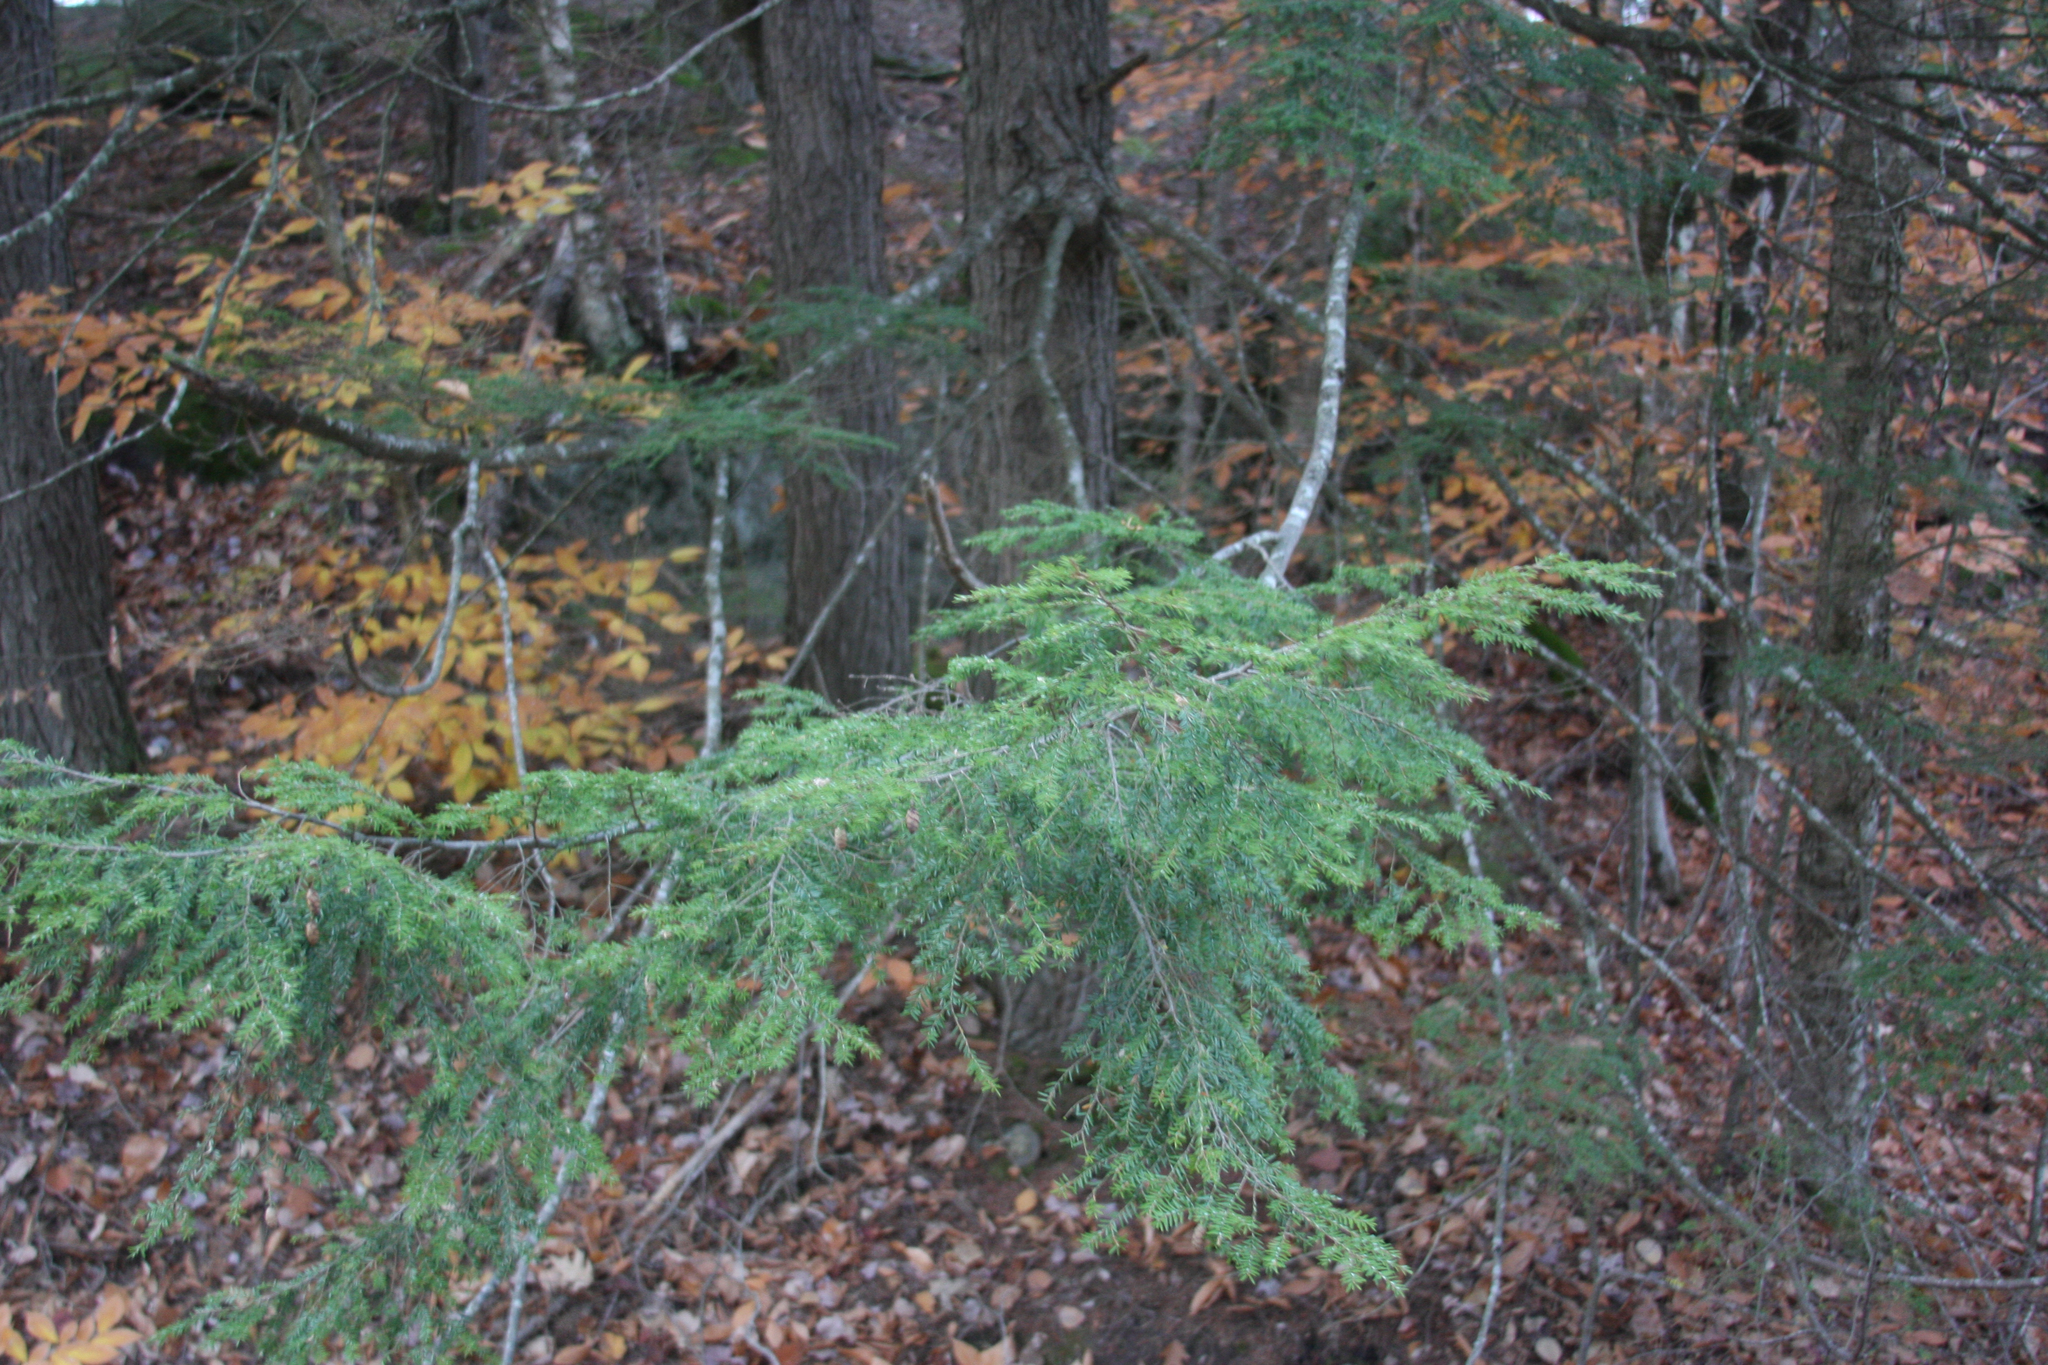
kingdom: Plantae
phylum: Tracheophyta
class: Pinopsida
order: Pinales
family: Pinaceae
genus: Tsuga
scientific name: Tsuga canadensis
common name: Eastern hemlock
